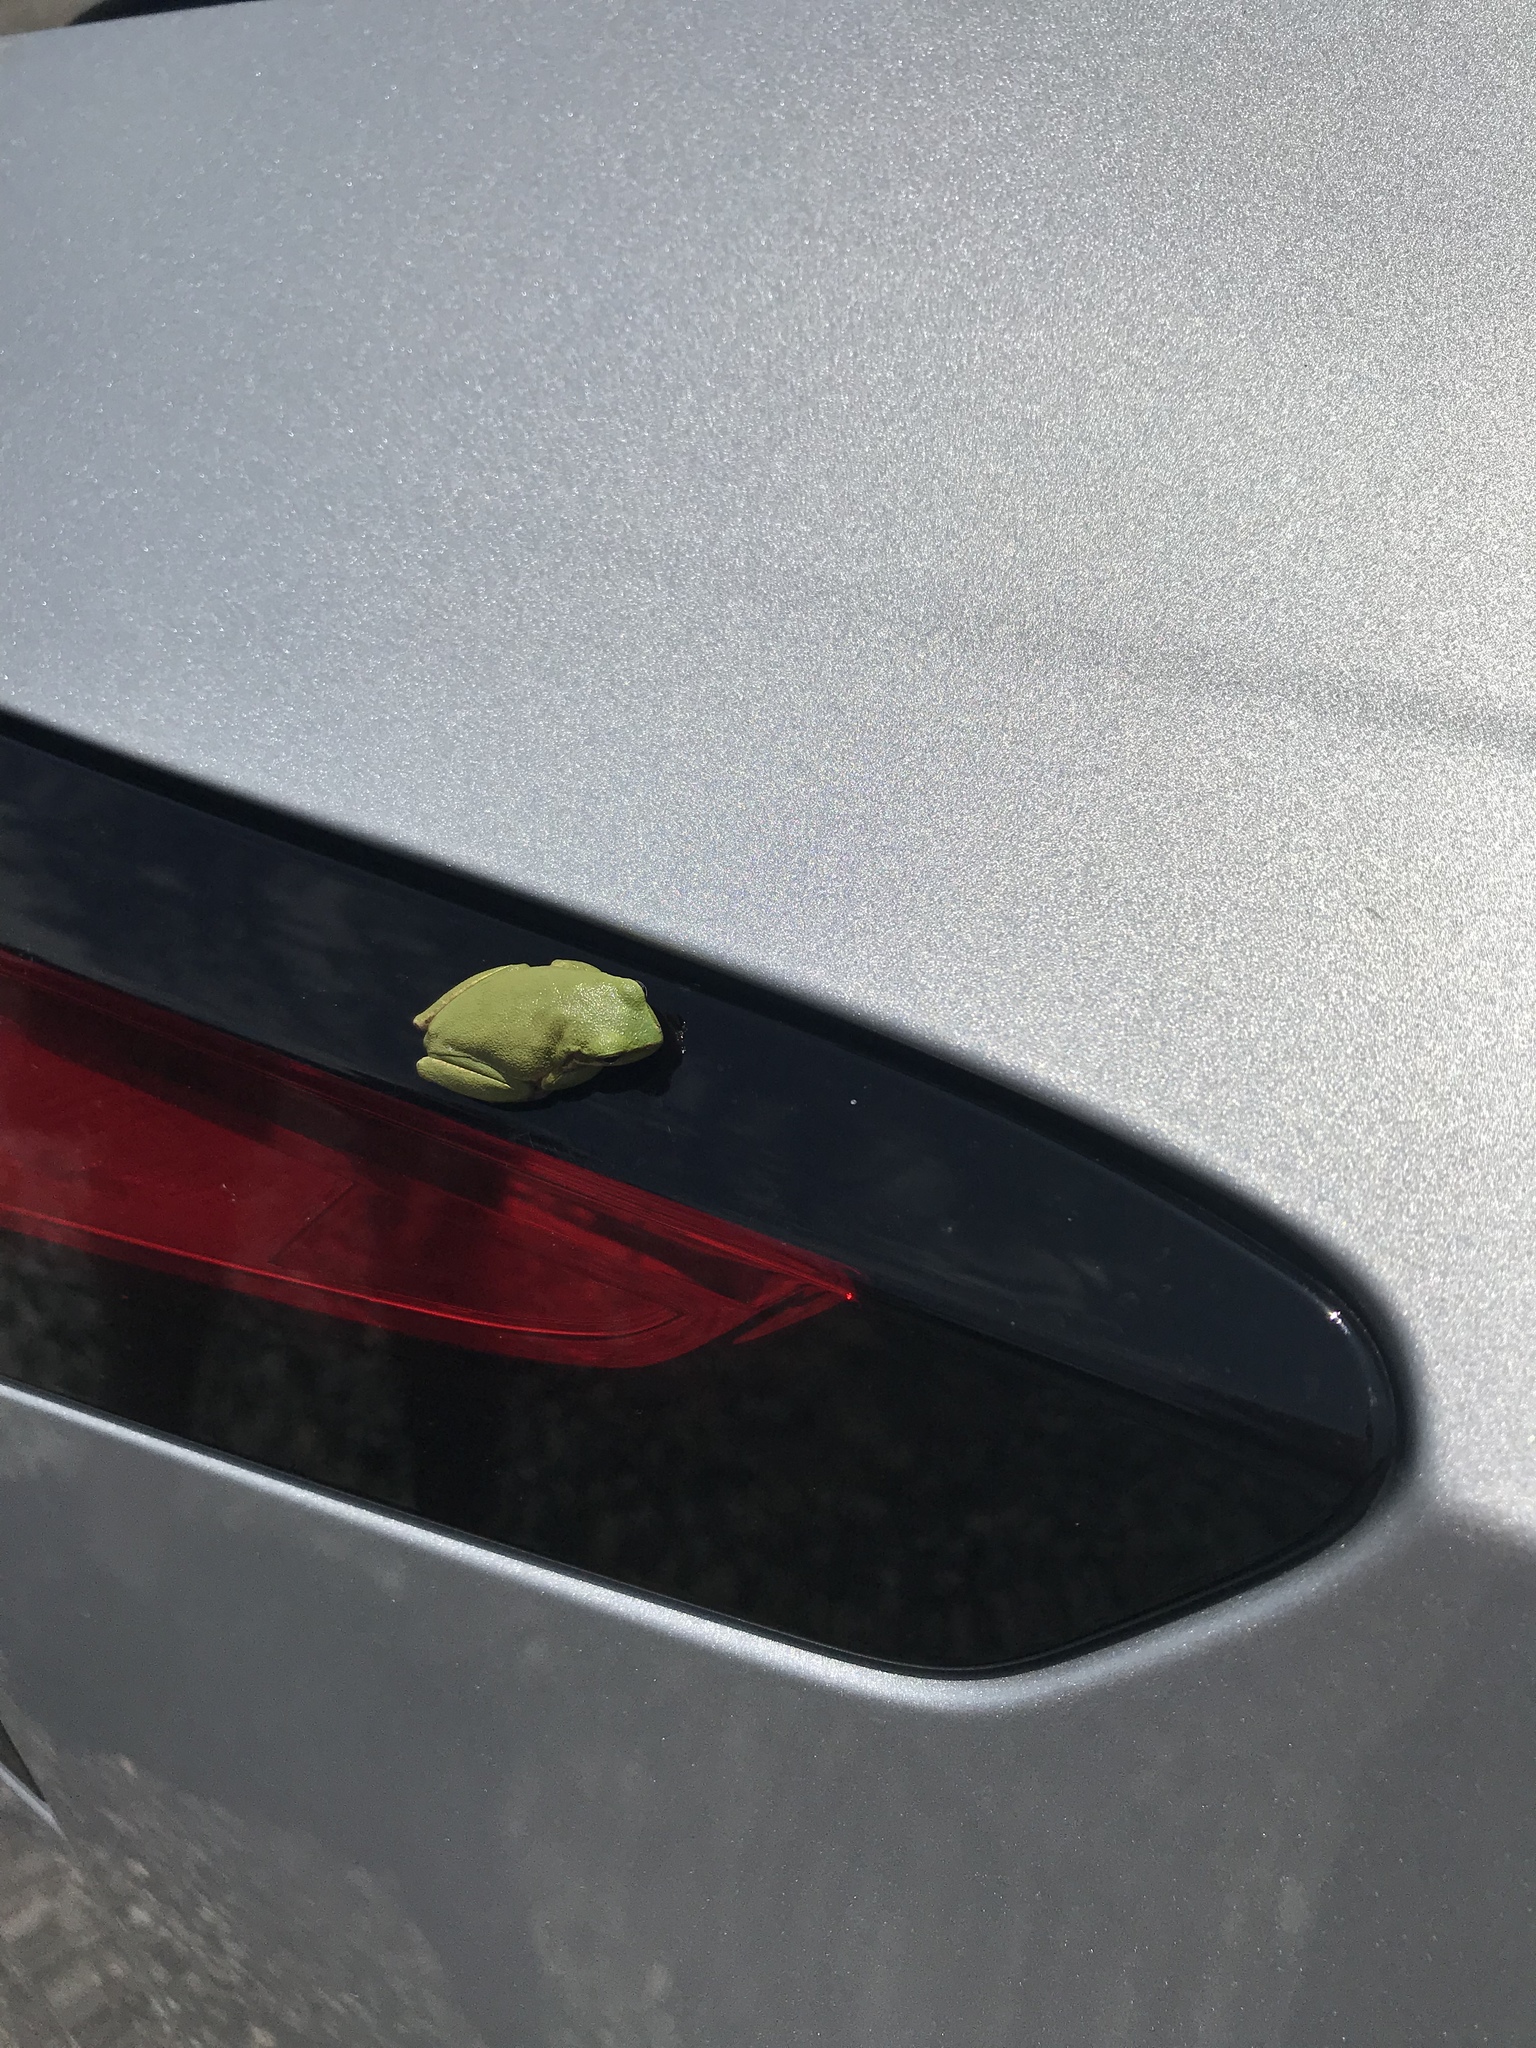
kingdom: Animalia
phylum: Chordata
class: Amphibia
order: Anura
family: Hylidae
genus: Dryophytes
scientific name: Dryophytes cinereus
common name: Green treefrog
